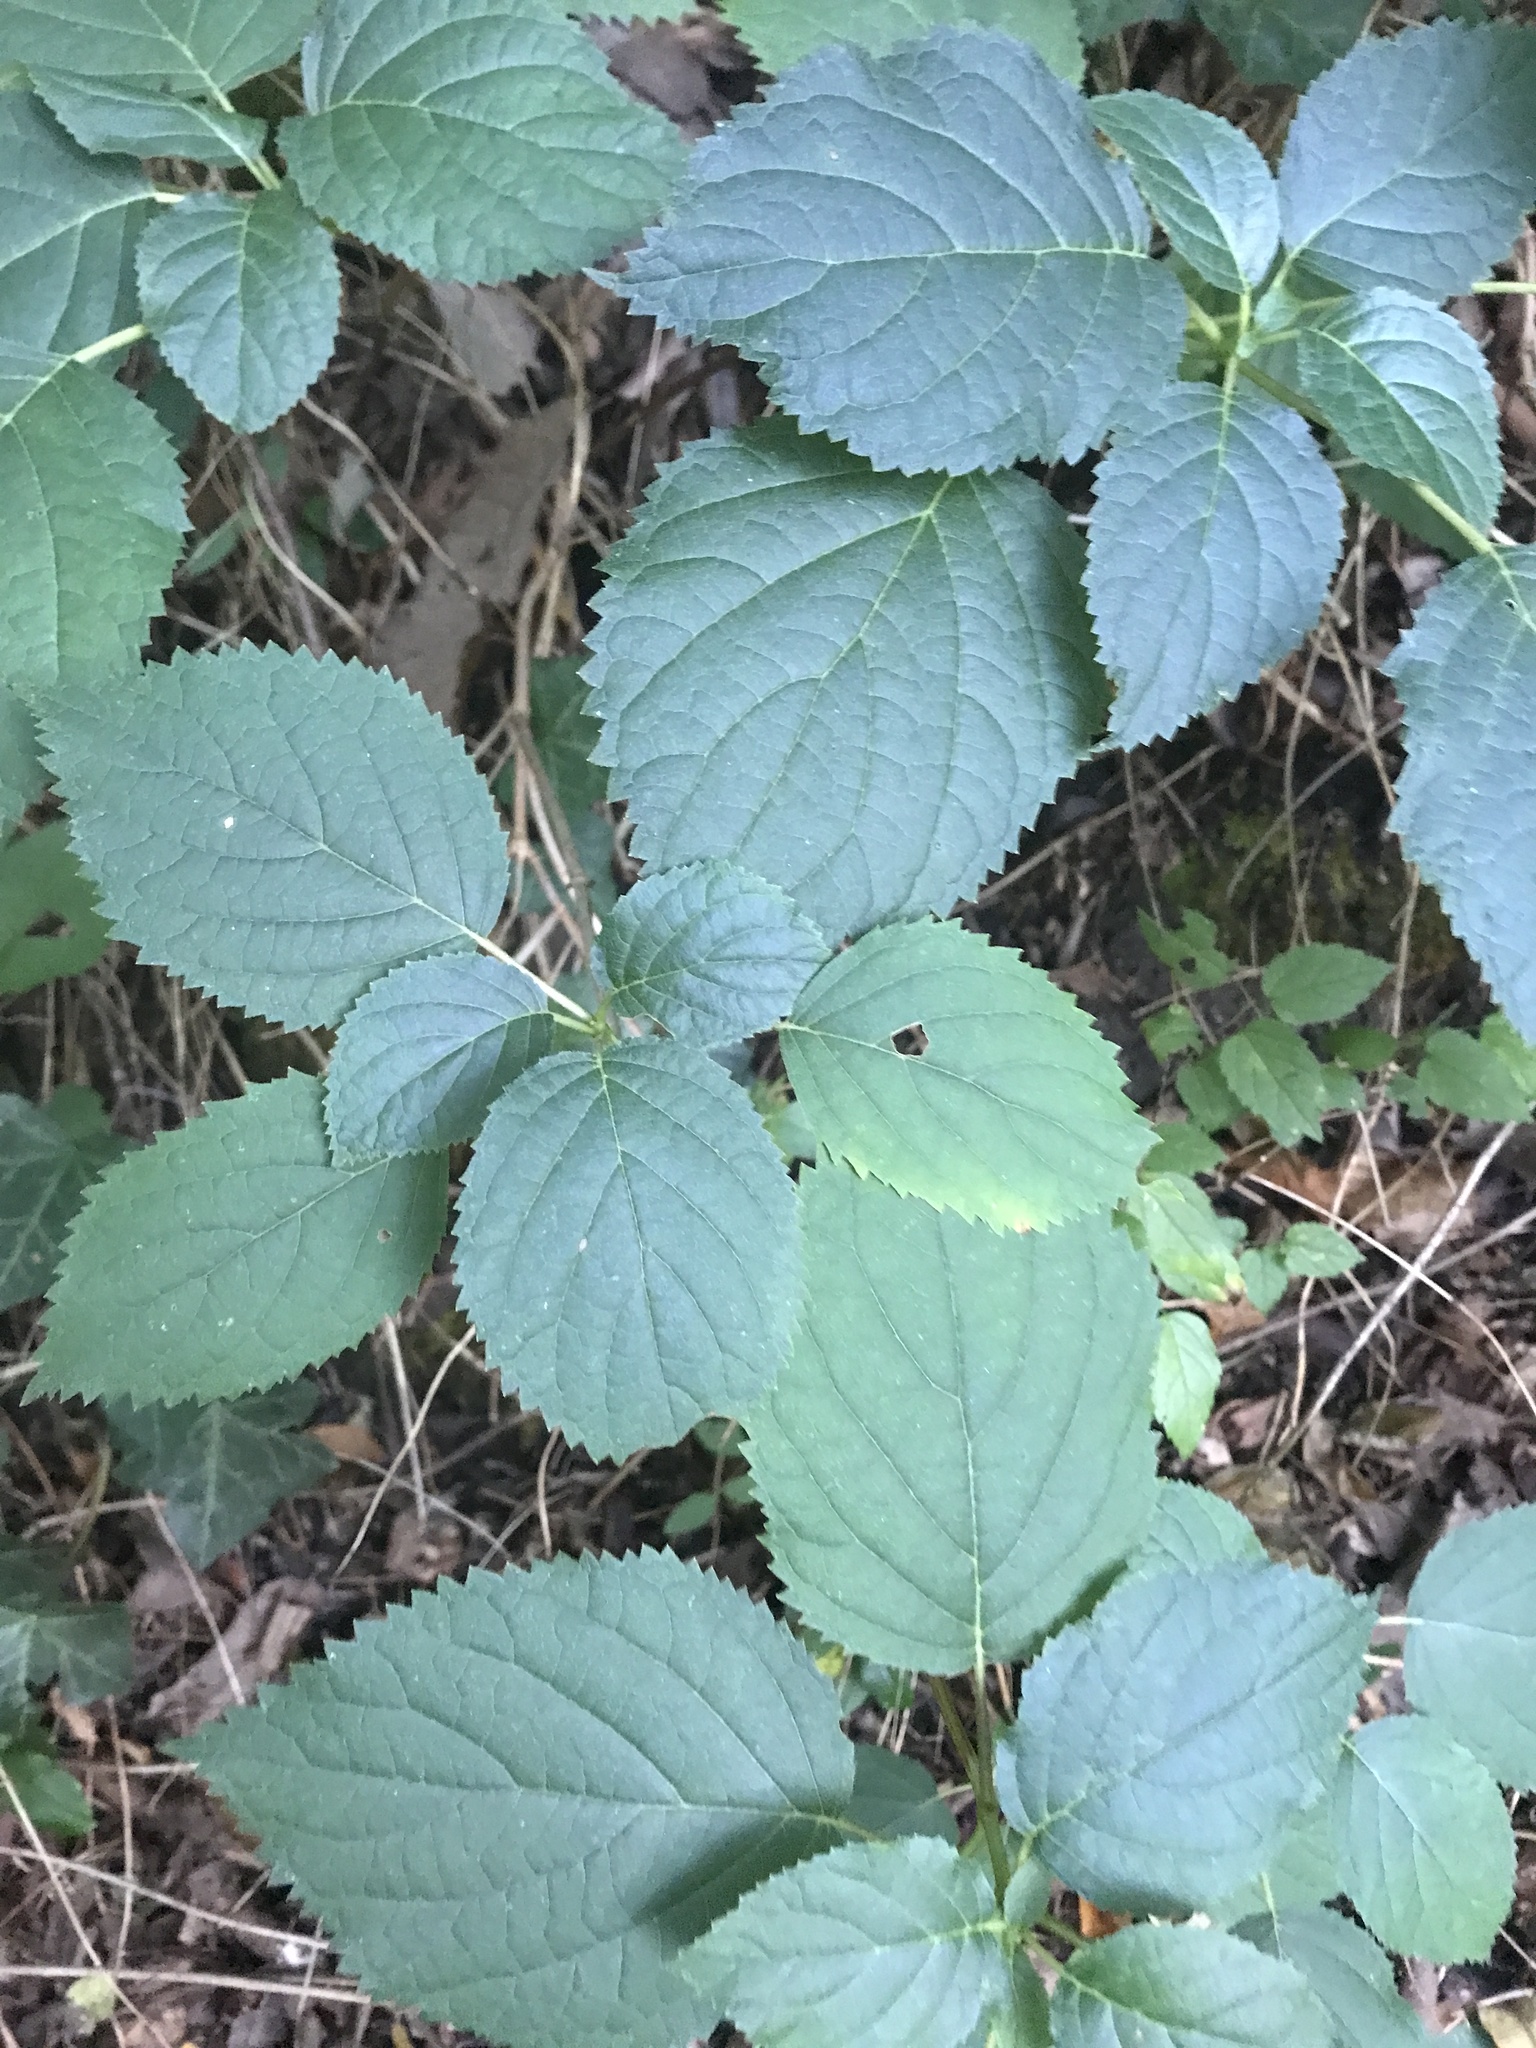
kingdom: Plantae
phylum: Tracheophyta
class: Magnoliopsida
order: Cornales
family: Hydrangeaceae
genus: Hydrangea
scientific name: Hydrangea arborescens
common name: Sevenbark
